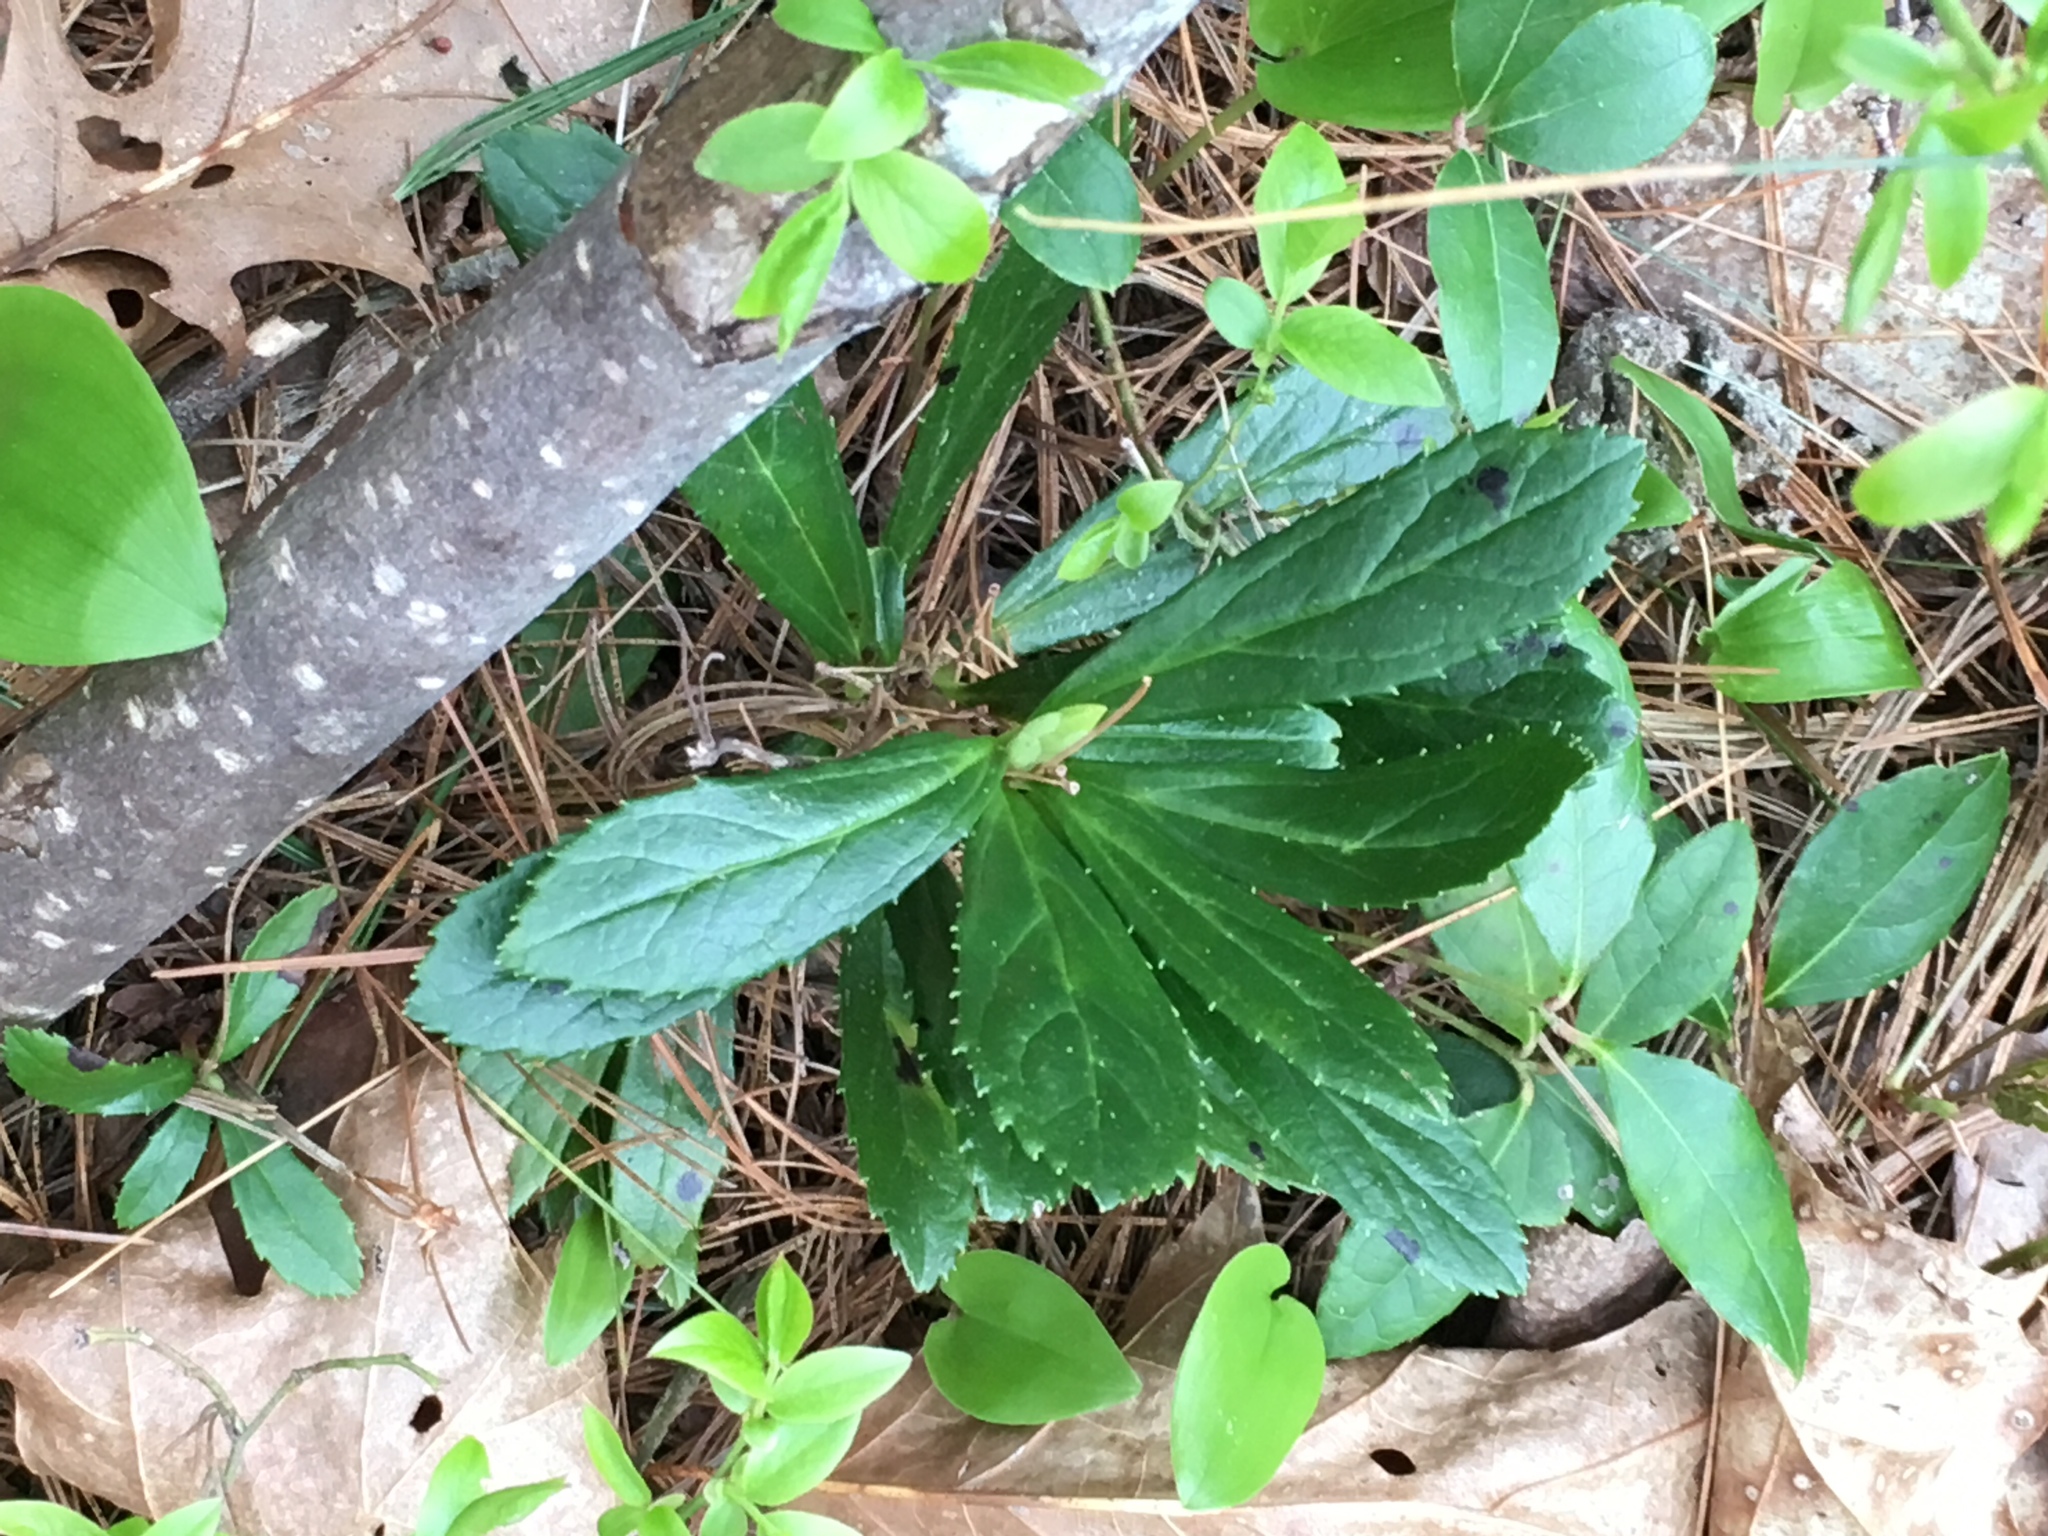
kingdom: Plantae
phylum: Tracheophyta
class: Magnoliopsida
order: Ericales
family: Ericaceae
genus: Chimaphila
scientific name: Chimaphila umbellata
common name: Pipsissewa
